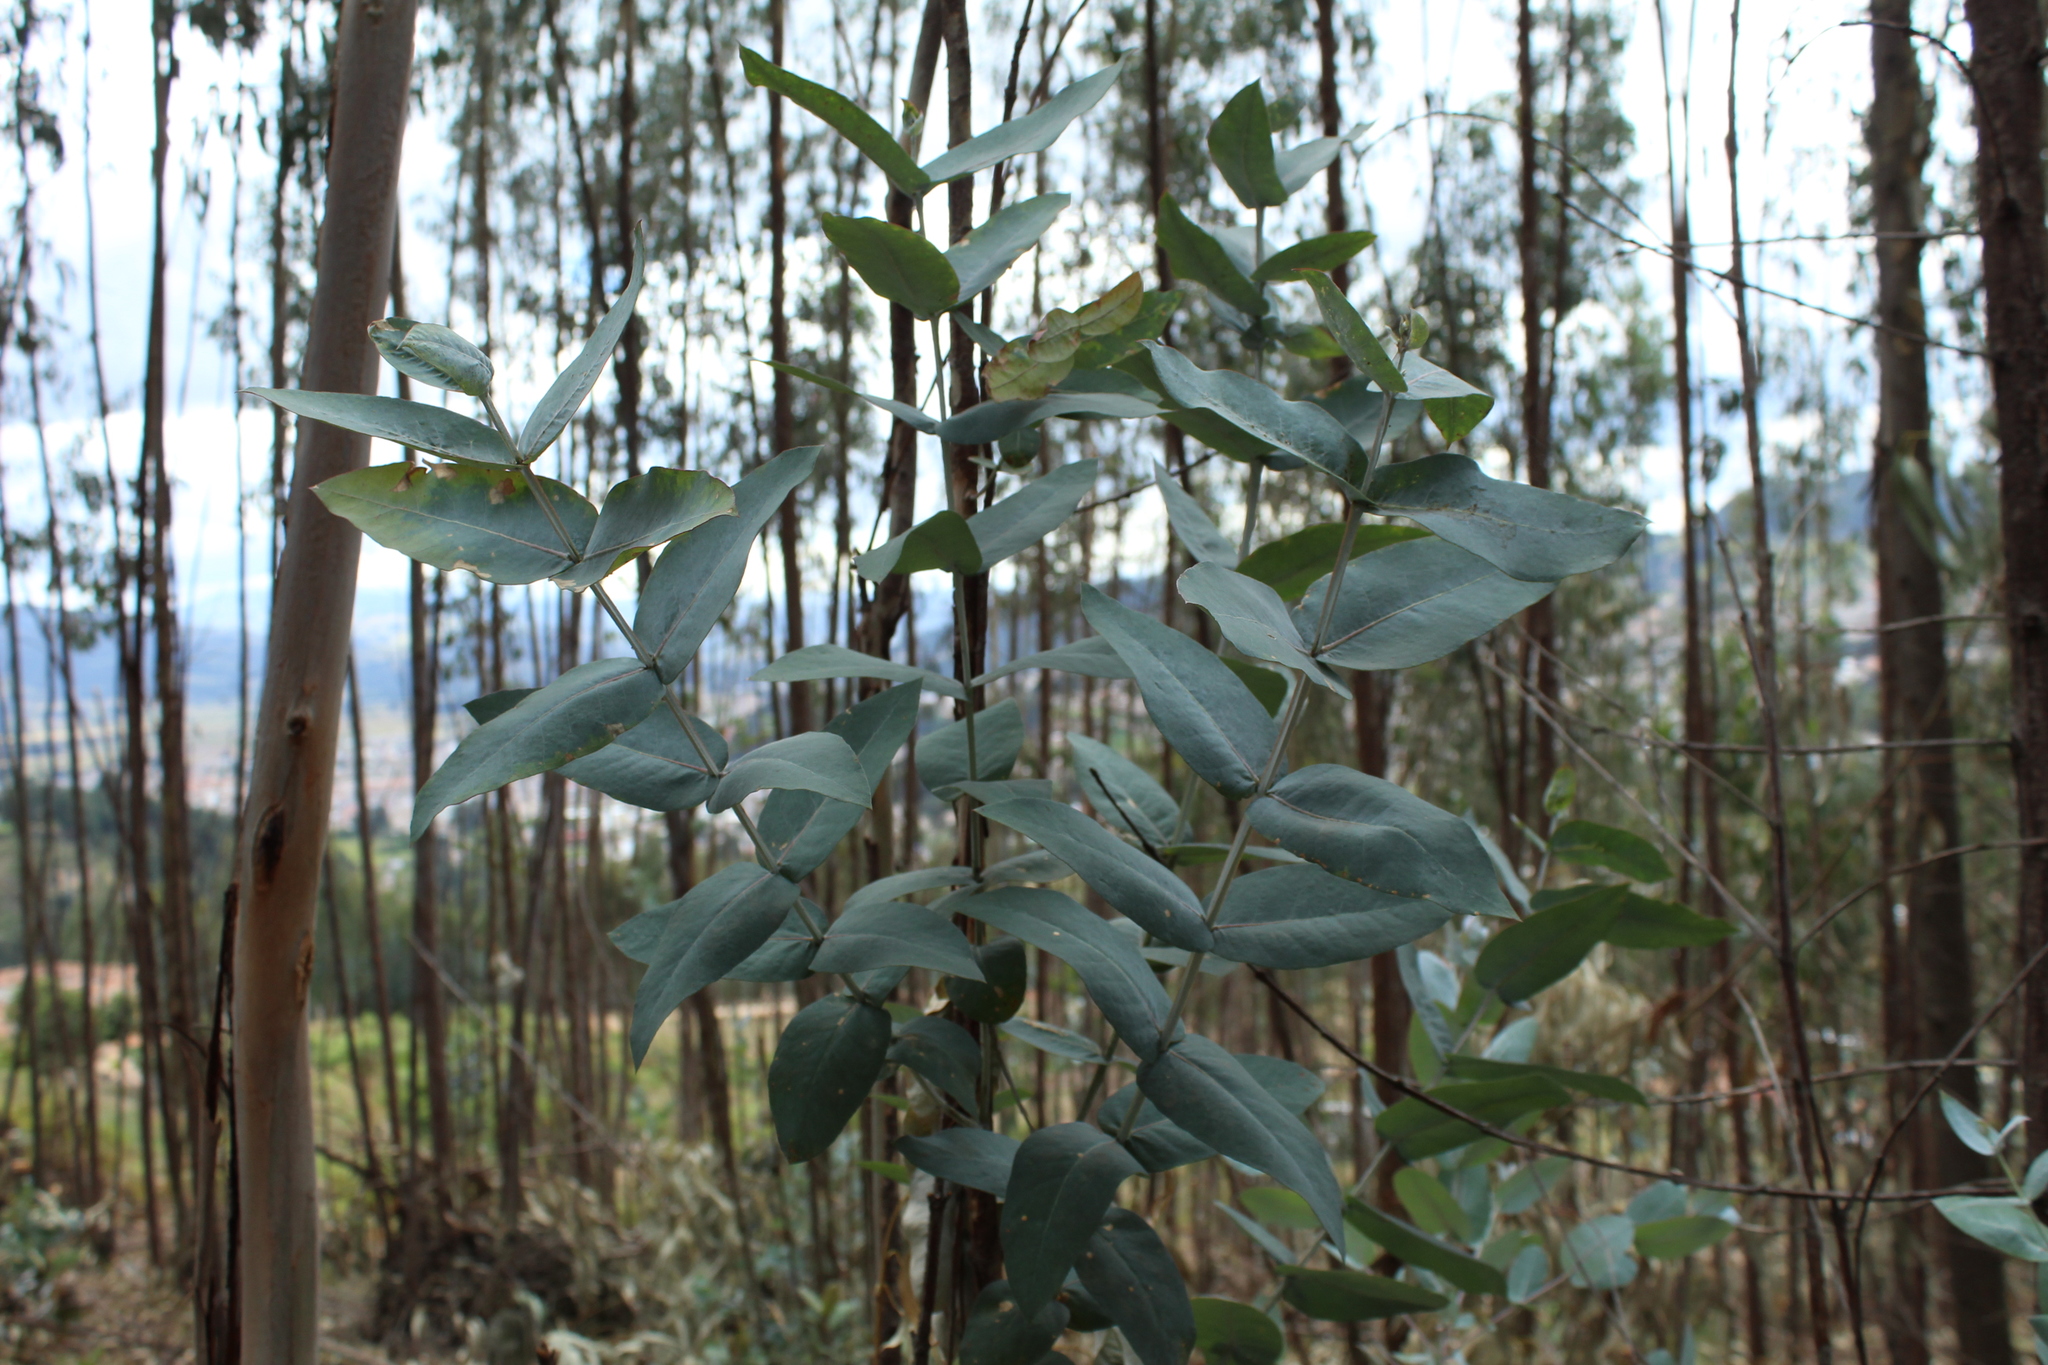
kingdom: Plantae
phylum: Tracheophyta
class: Magnoliopsida
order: Myrtales
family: Myrtaceae
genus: Eucalyptus
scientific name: Eucalyptus globulus
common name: Southern blue-gum
